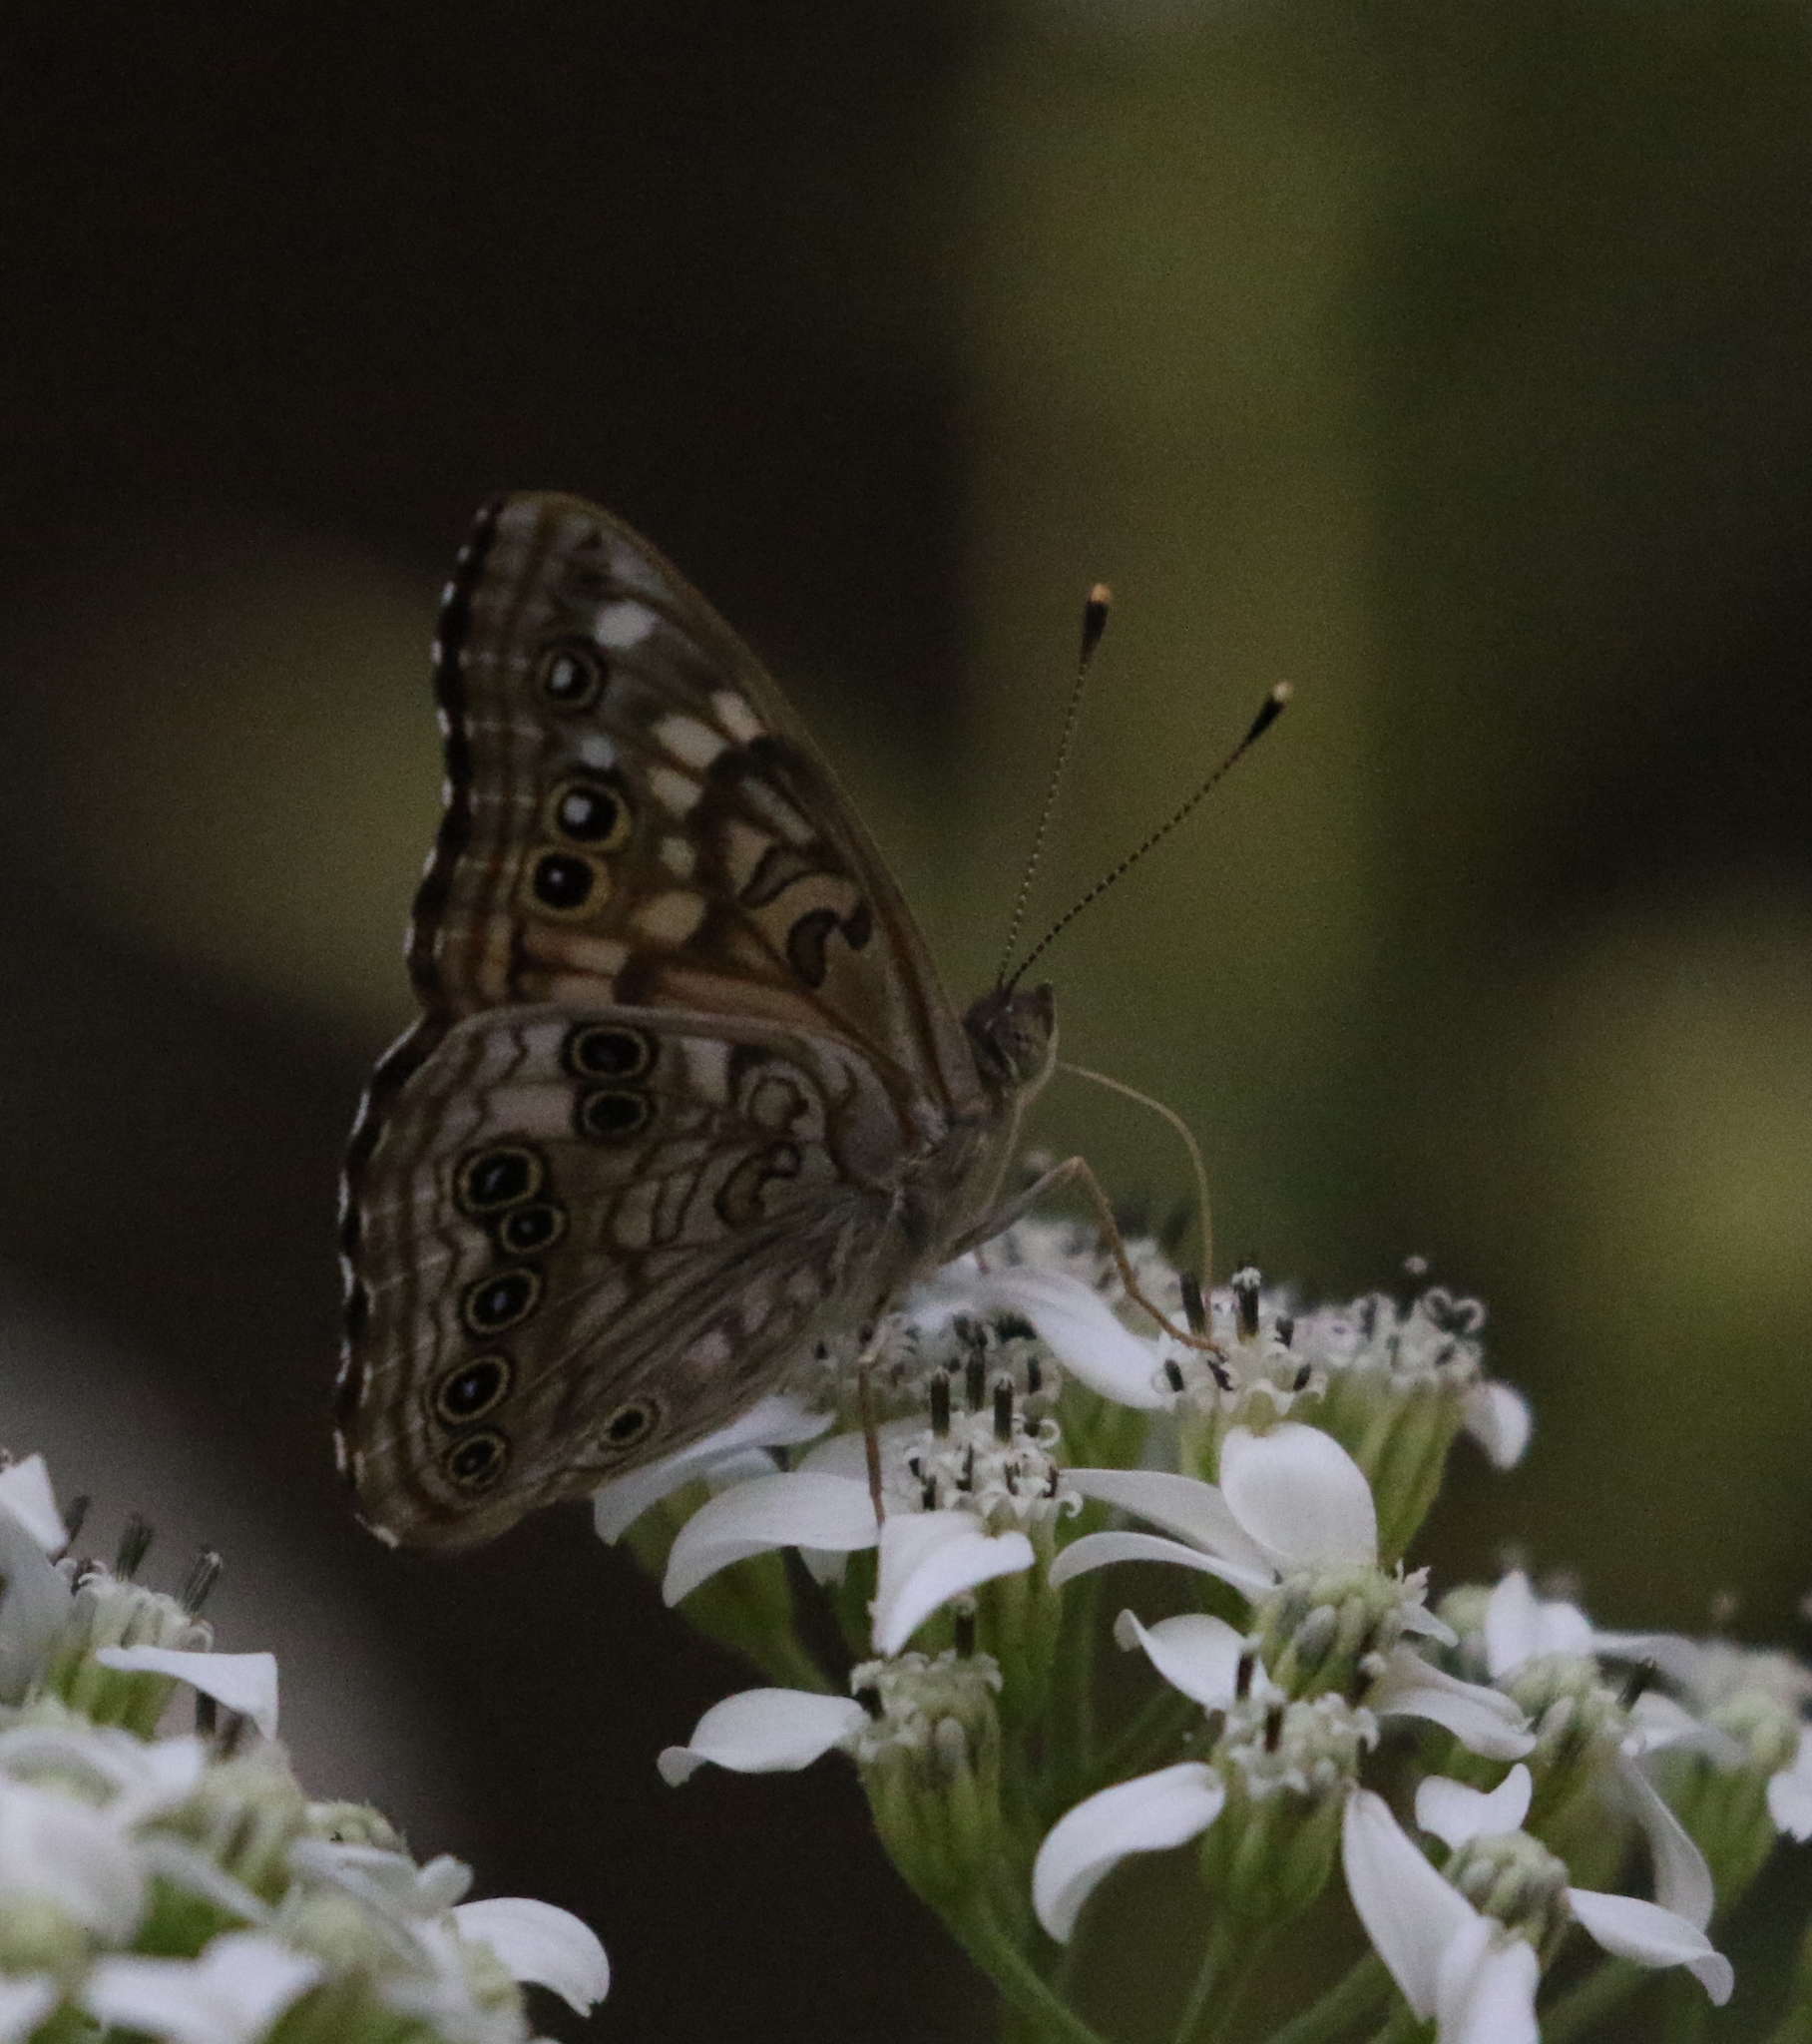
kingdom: Animalia
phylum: Arthropoda
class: Insecta
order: Lepidoptera
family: Nymphalidae
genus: Asterocampa
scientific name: Asterocampa celtis
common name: Hackberry emperor
